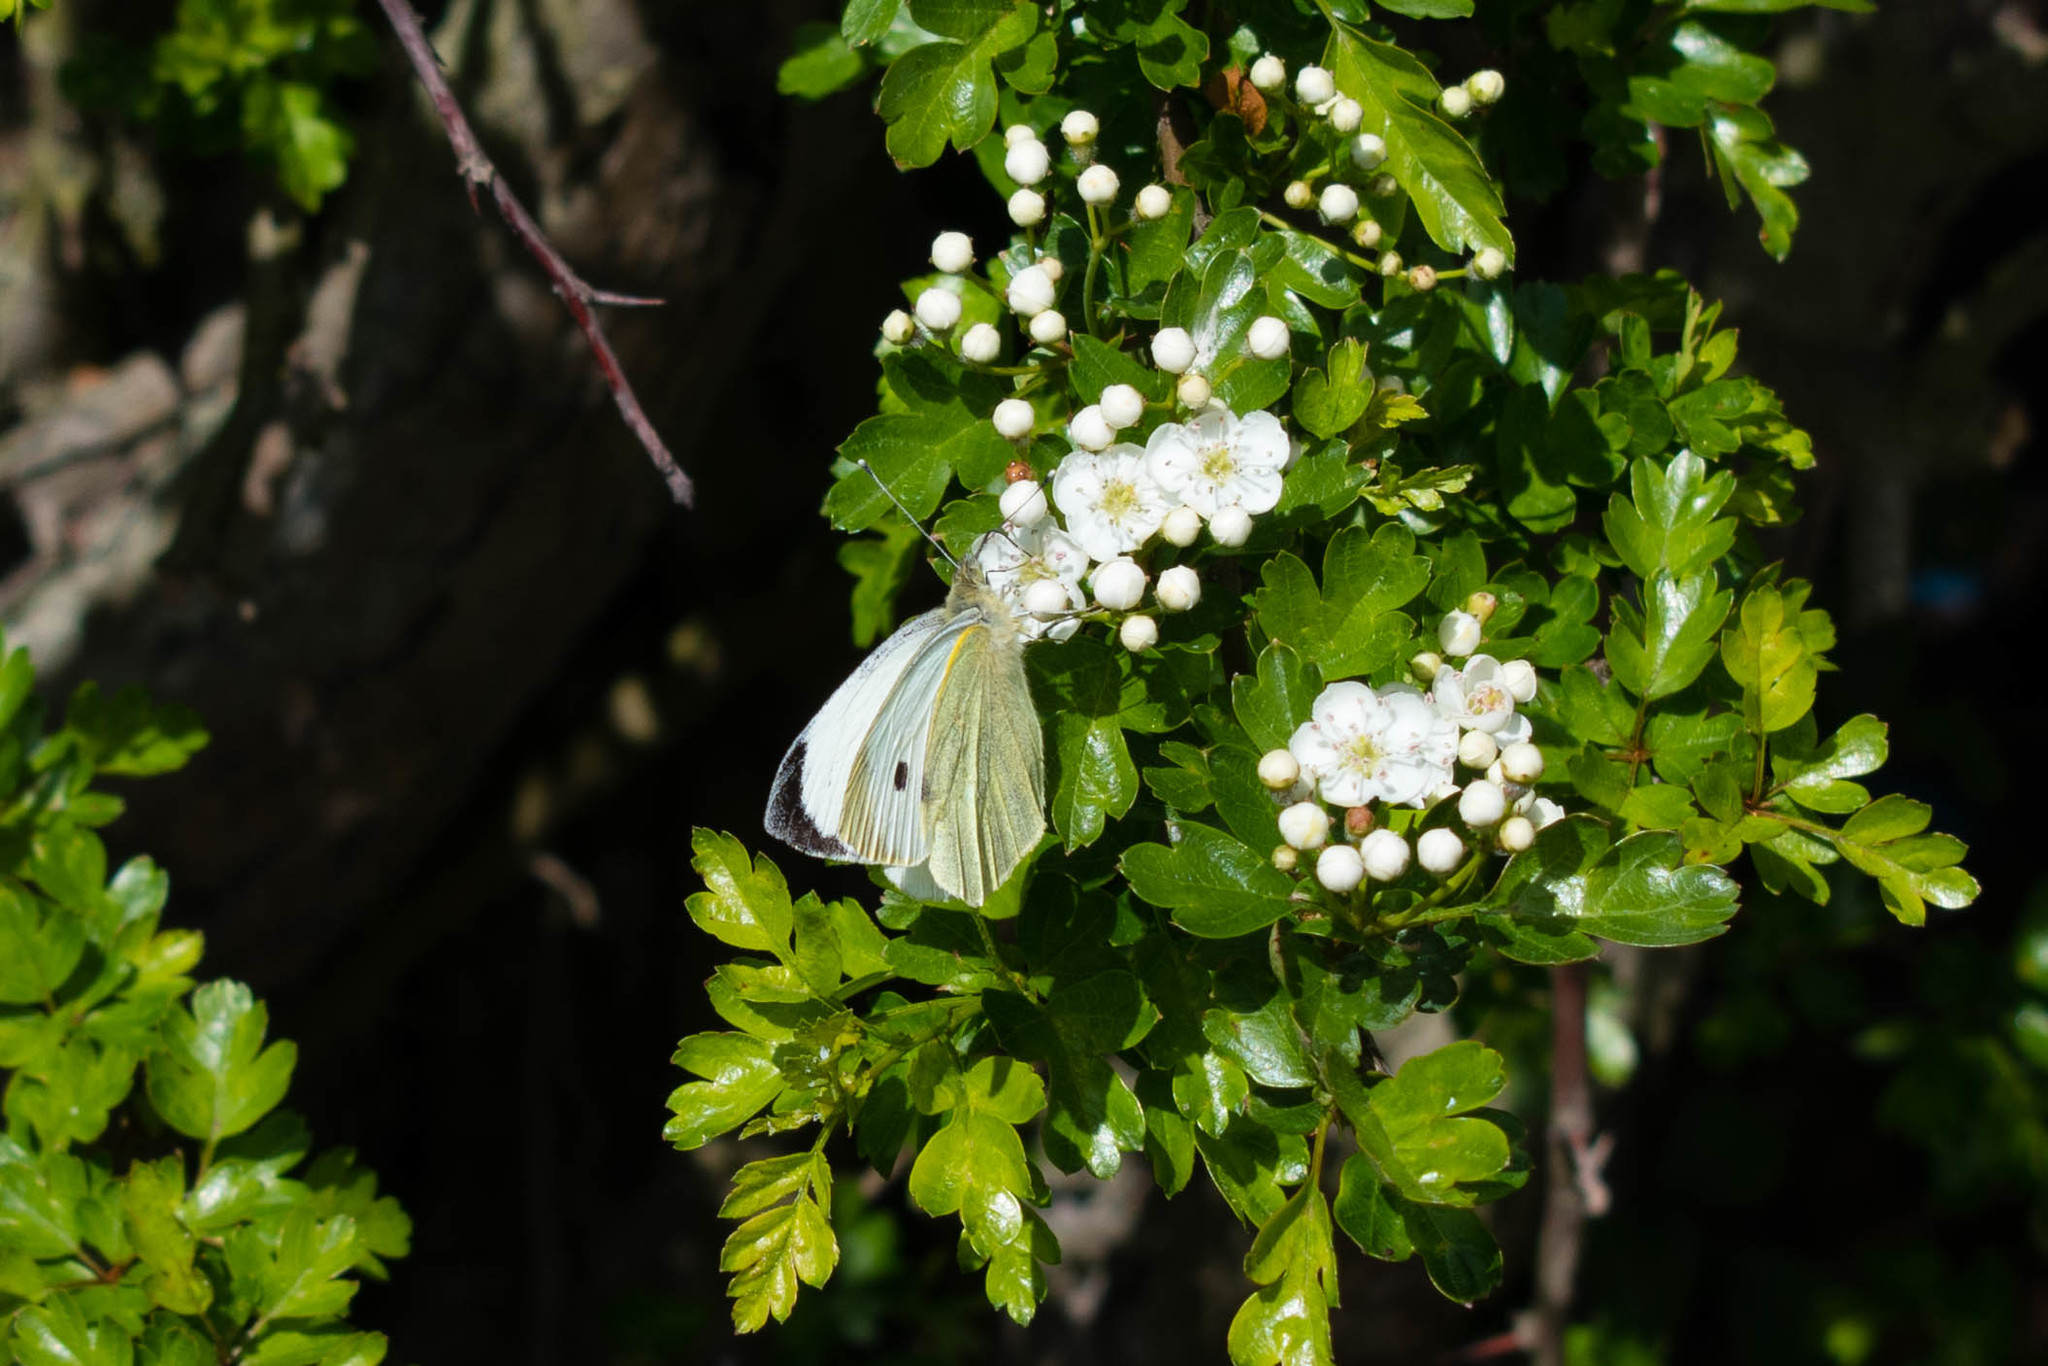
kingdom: Animalia
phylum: Arthropoda
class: Insecta
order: Lepidoptera
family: Pieridae
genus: Pieris
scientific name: Pieris brassicae
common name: Large white
